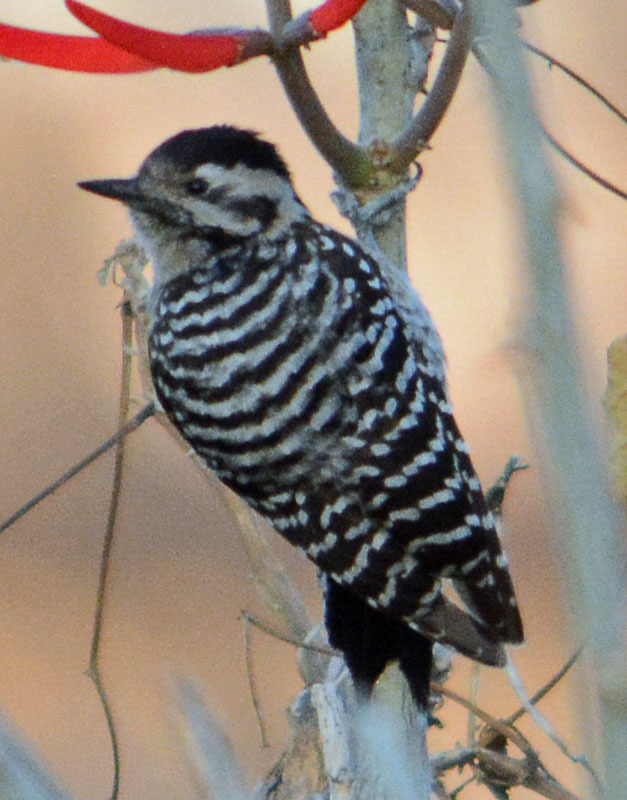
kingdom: Animalia
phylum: Chordata
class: Aves
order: Piciformes
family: Picidae
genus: Dryobates
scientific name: Dryobates scalaris
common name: Ladder-backed woodpecker
